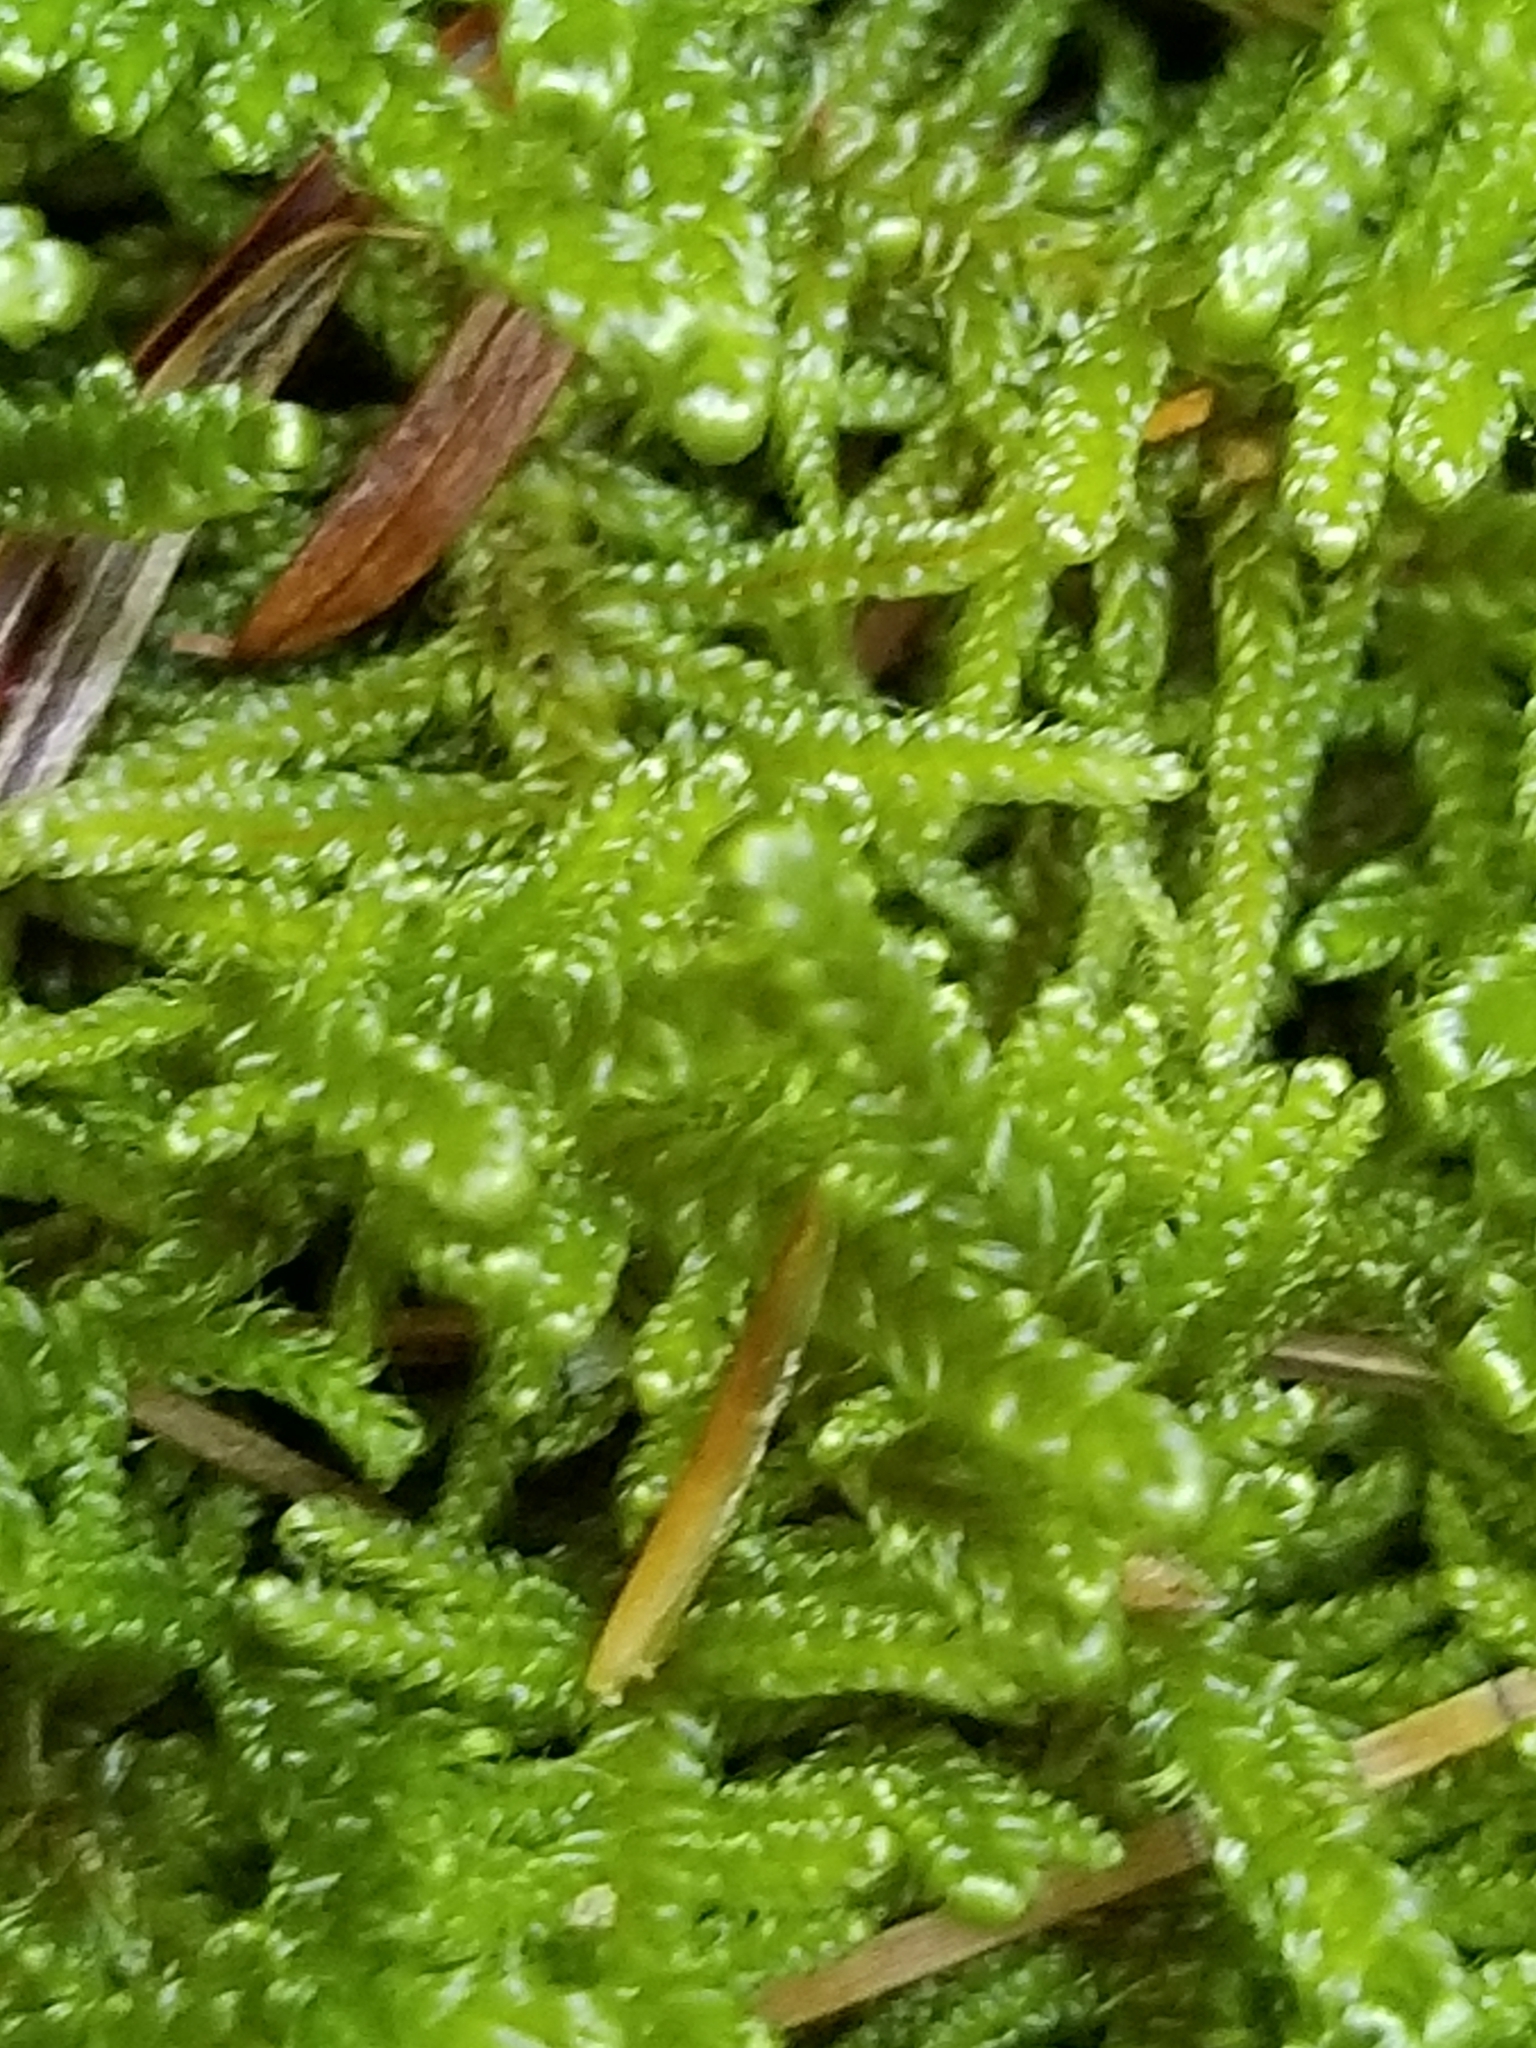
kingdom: Plantae
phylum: Bryophyta
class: Bryopsida
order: Hypnales
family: Callicladiaceae
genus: Callicladium
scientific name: Callicladium imponens
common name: Brocade moss
